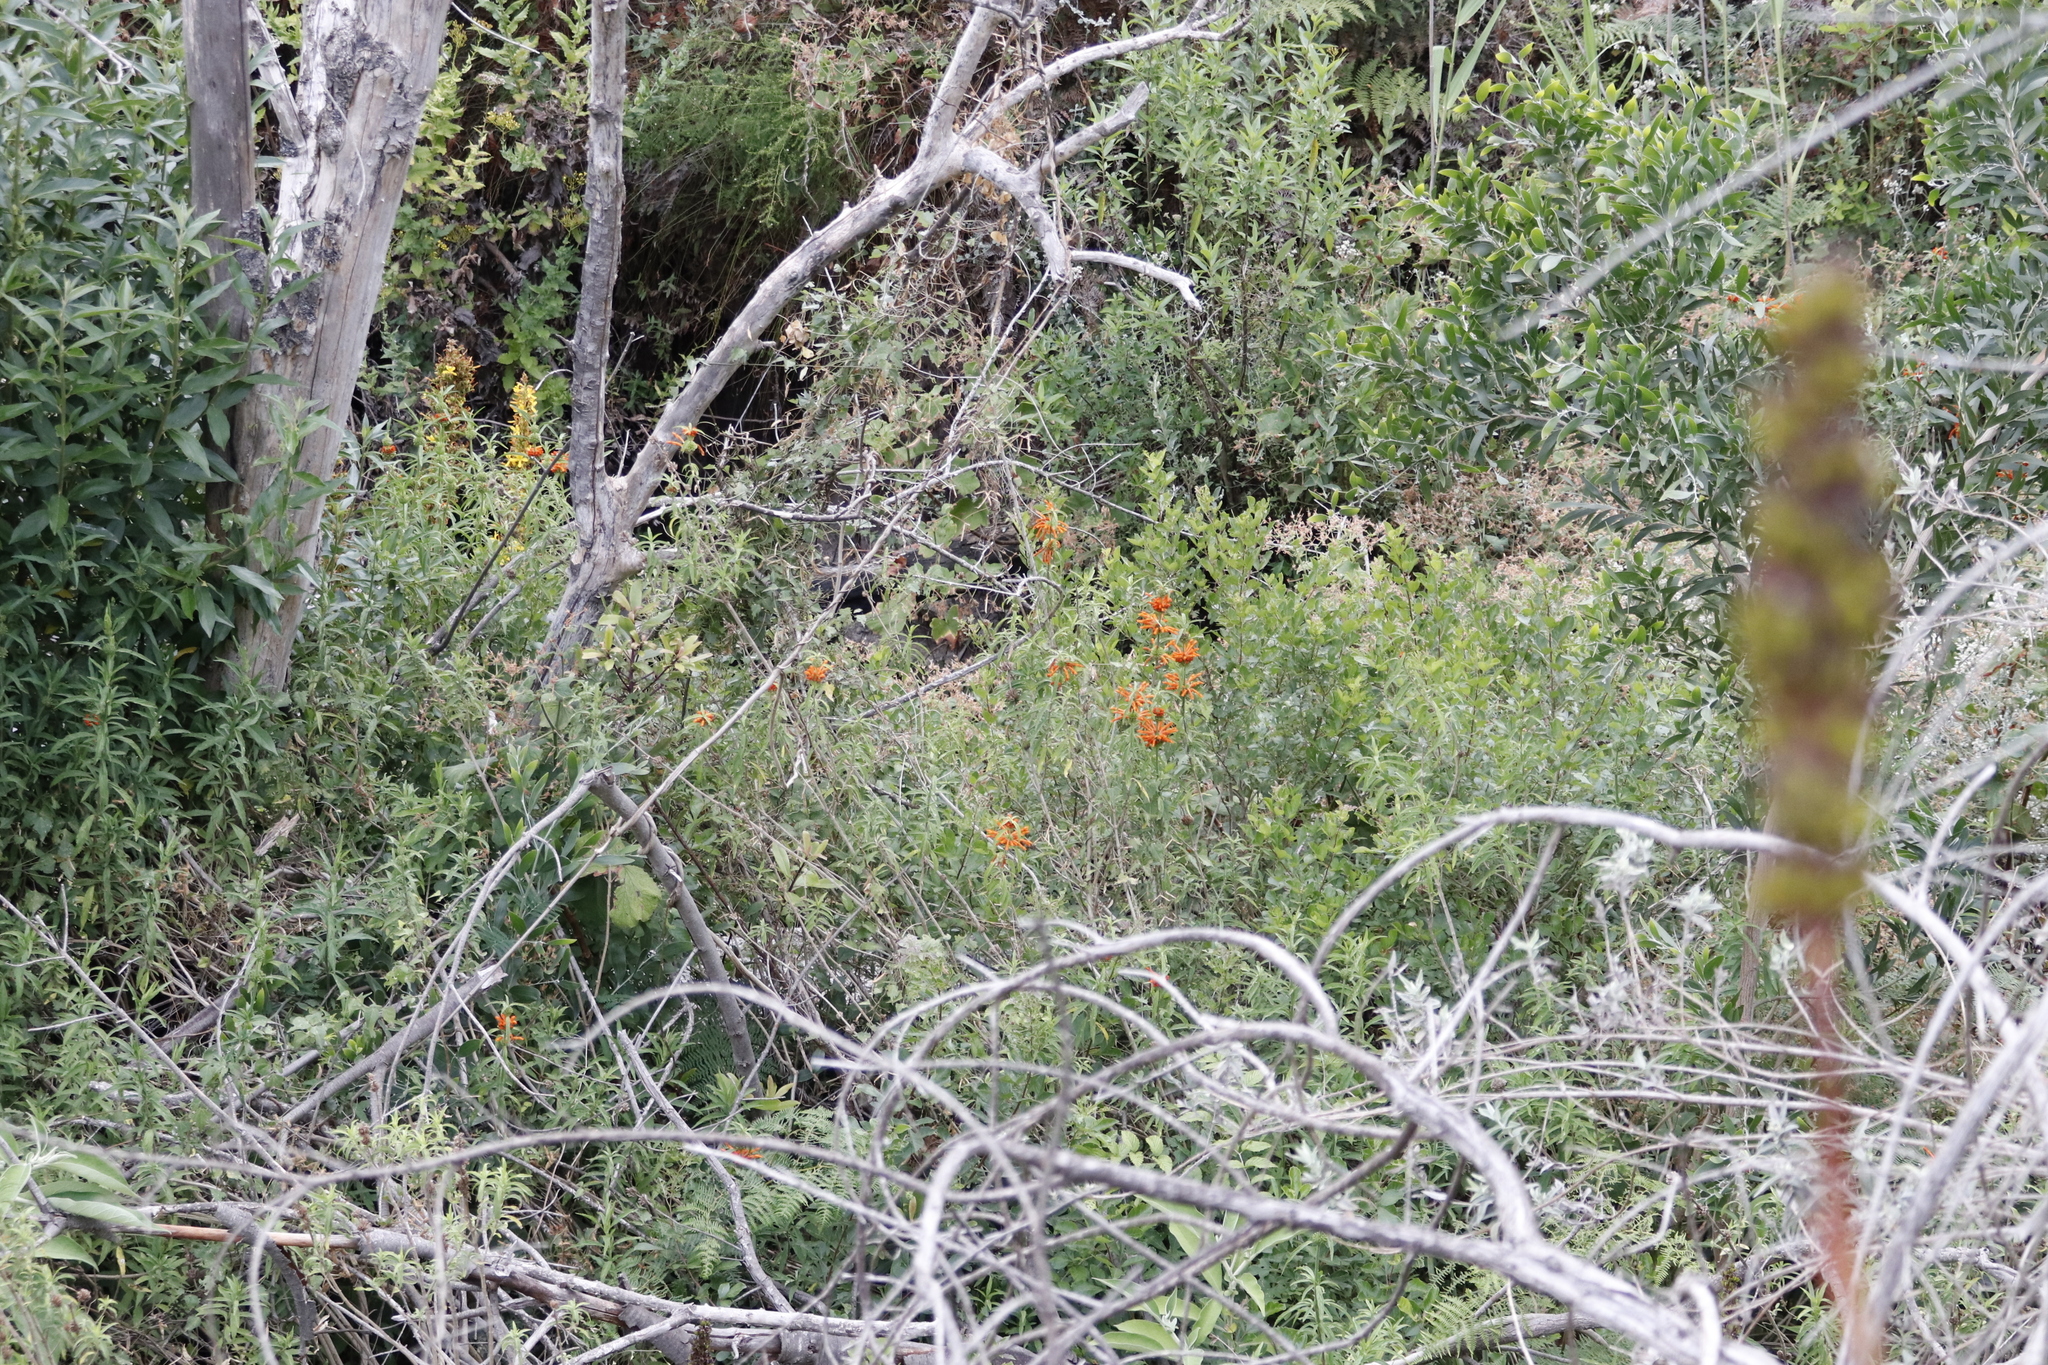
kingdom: Plantae
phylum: Tracheophyta
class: Magnoliopsida
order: Lamiales
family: Lamiaceae
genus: Leonotis
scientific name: Leonotis leonurus
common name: Lion's ear
